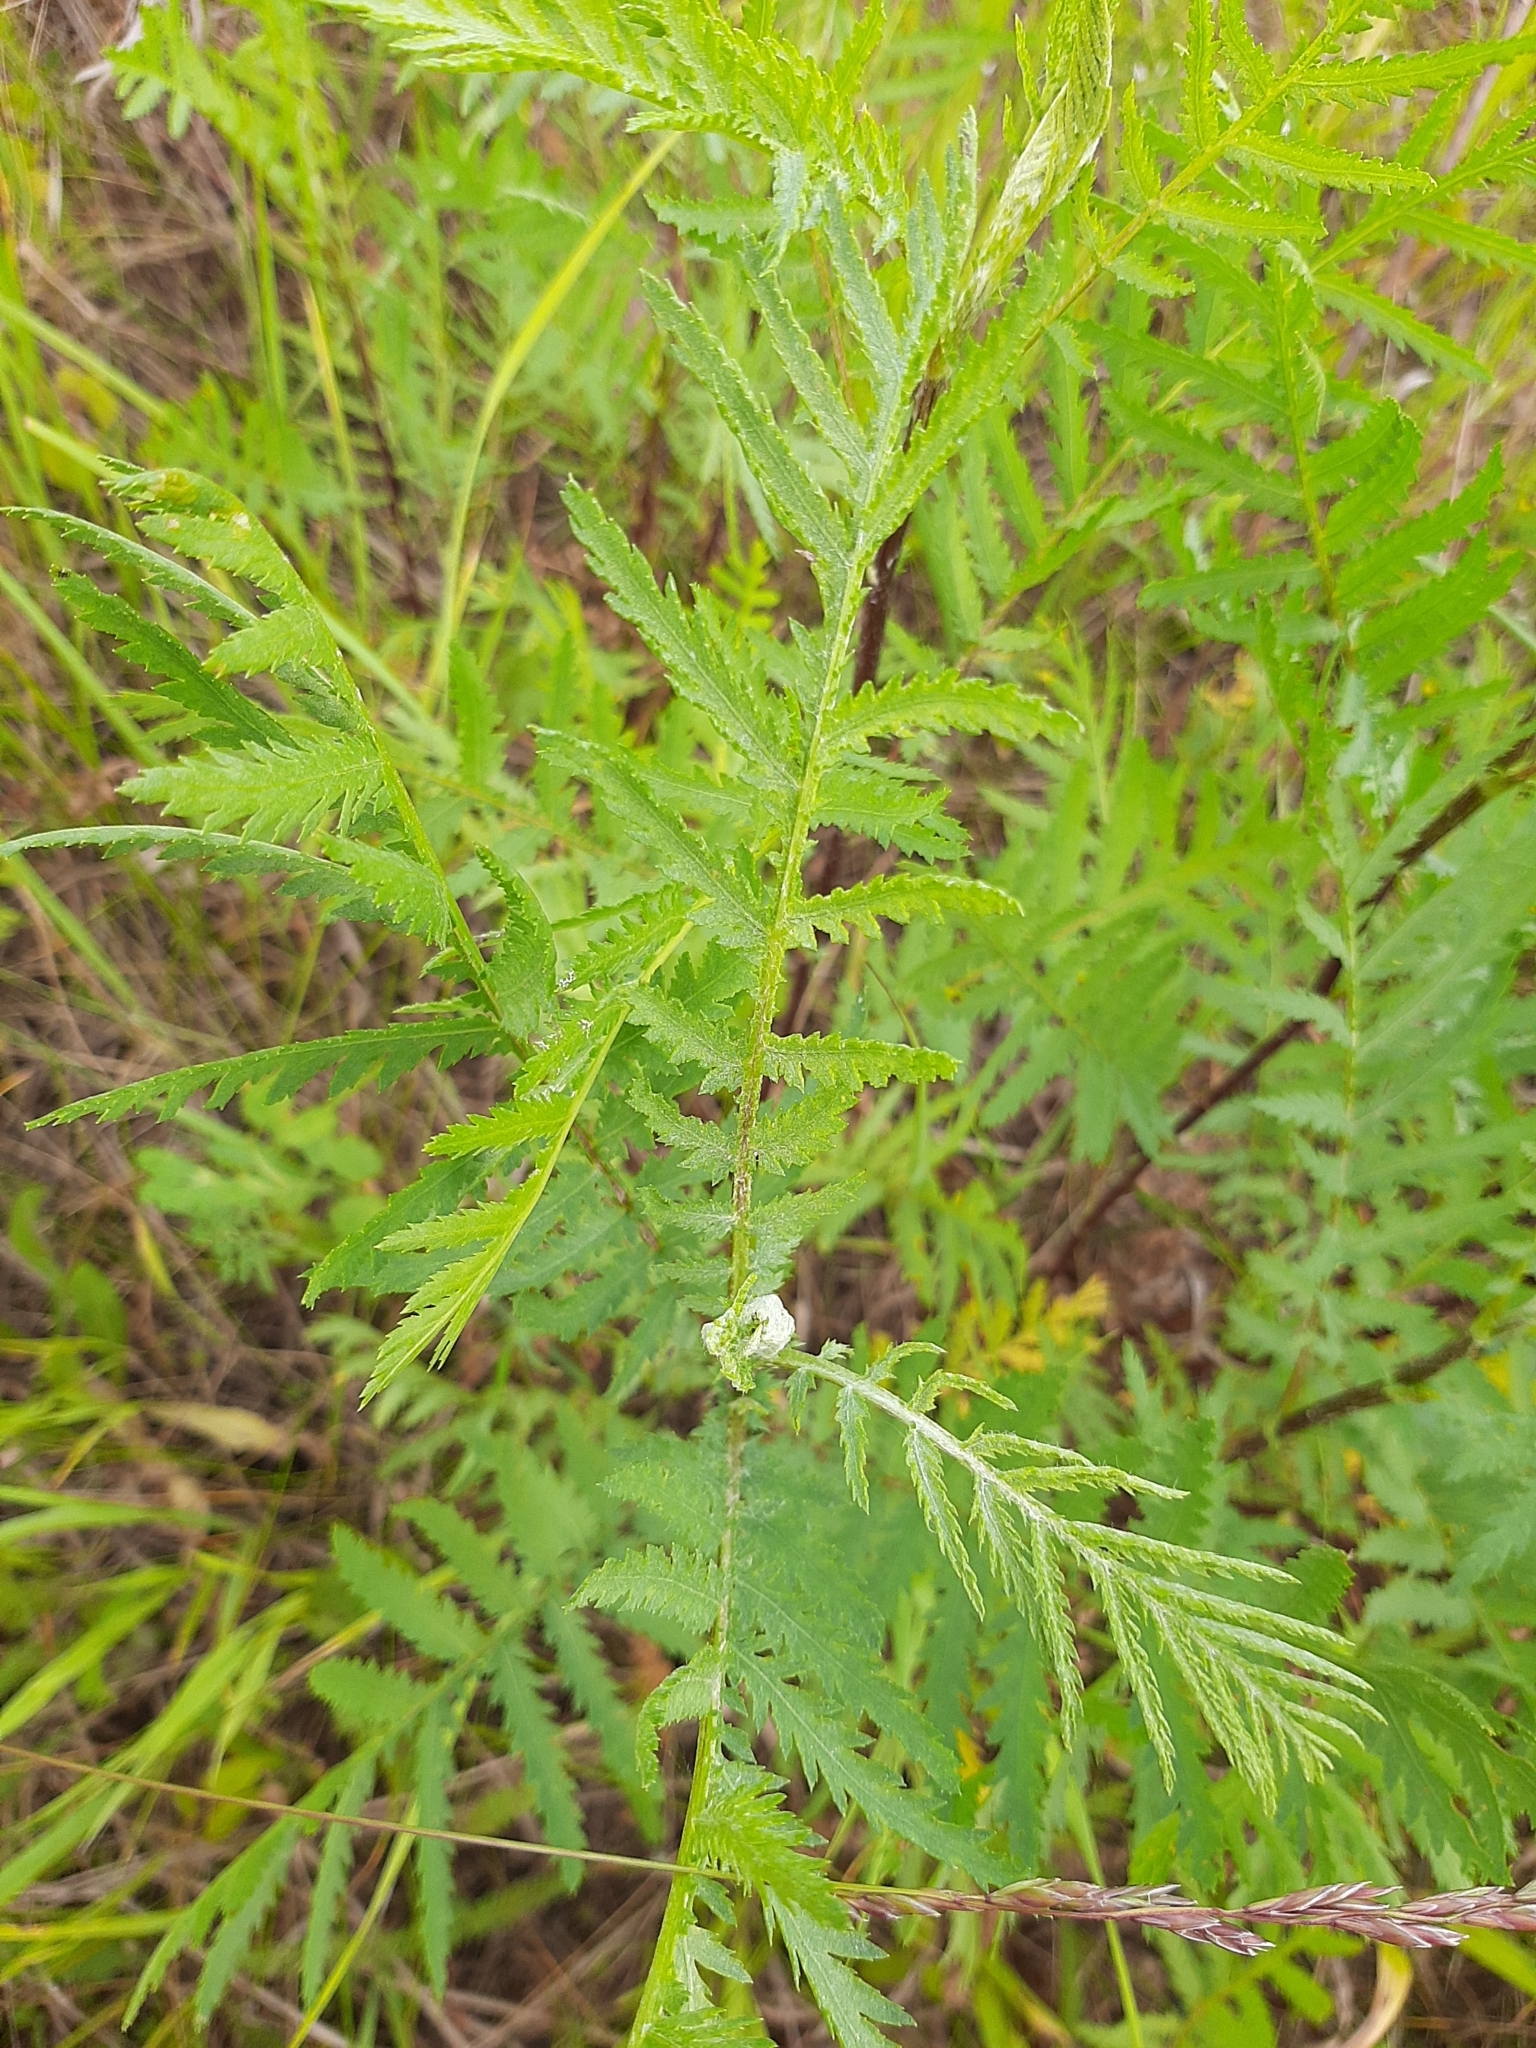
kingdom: Plantae
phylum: Tracheophyta
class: Magnoliopsida
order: Asterales
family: Asteraceae
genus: Tanacetum
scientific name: Tanacetum vulgare
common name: Common tansy
